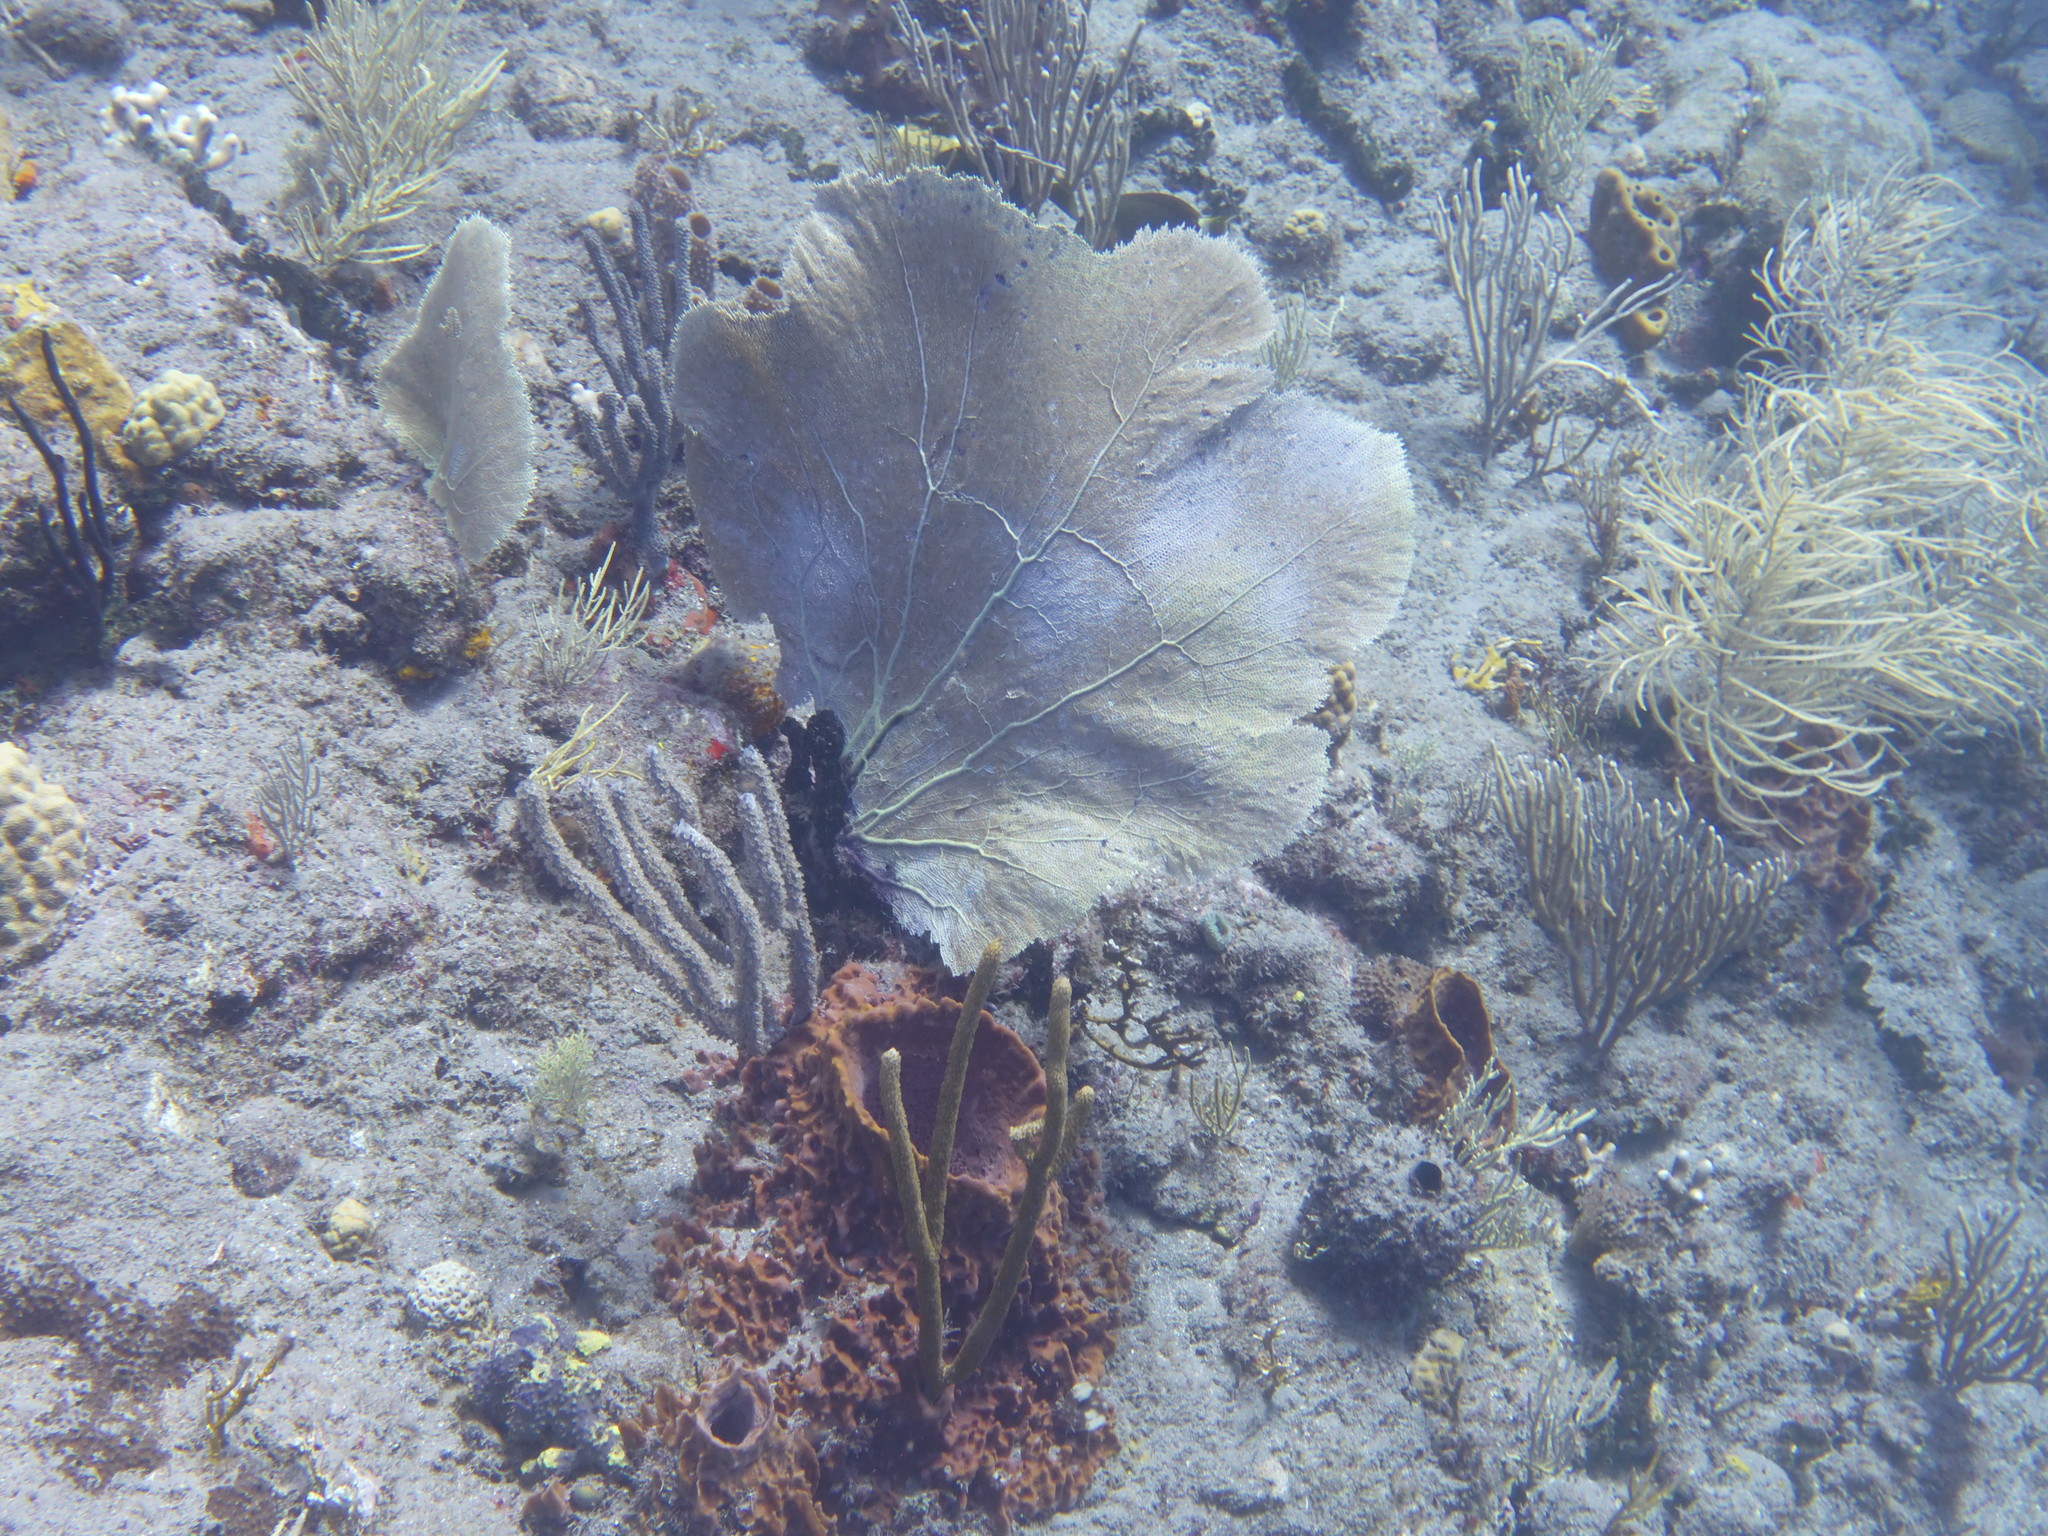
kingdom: Animalia
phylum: Cnidaria
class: Anthozoa
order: Malacalcyonacea
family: Gorgoniidae
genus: Gorgonia
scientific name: Gorgonia ventalina
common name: Common sea fan
